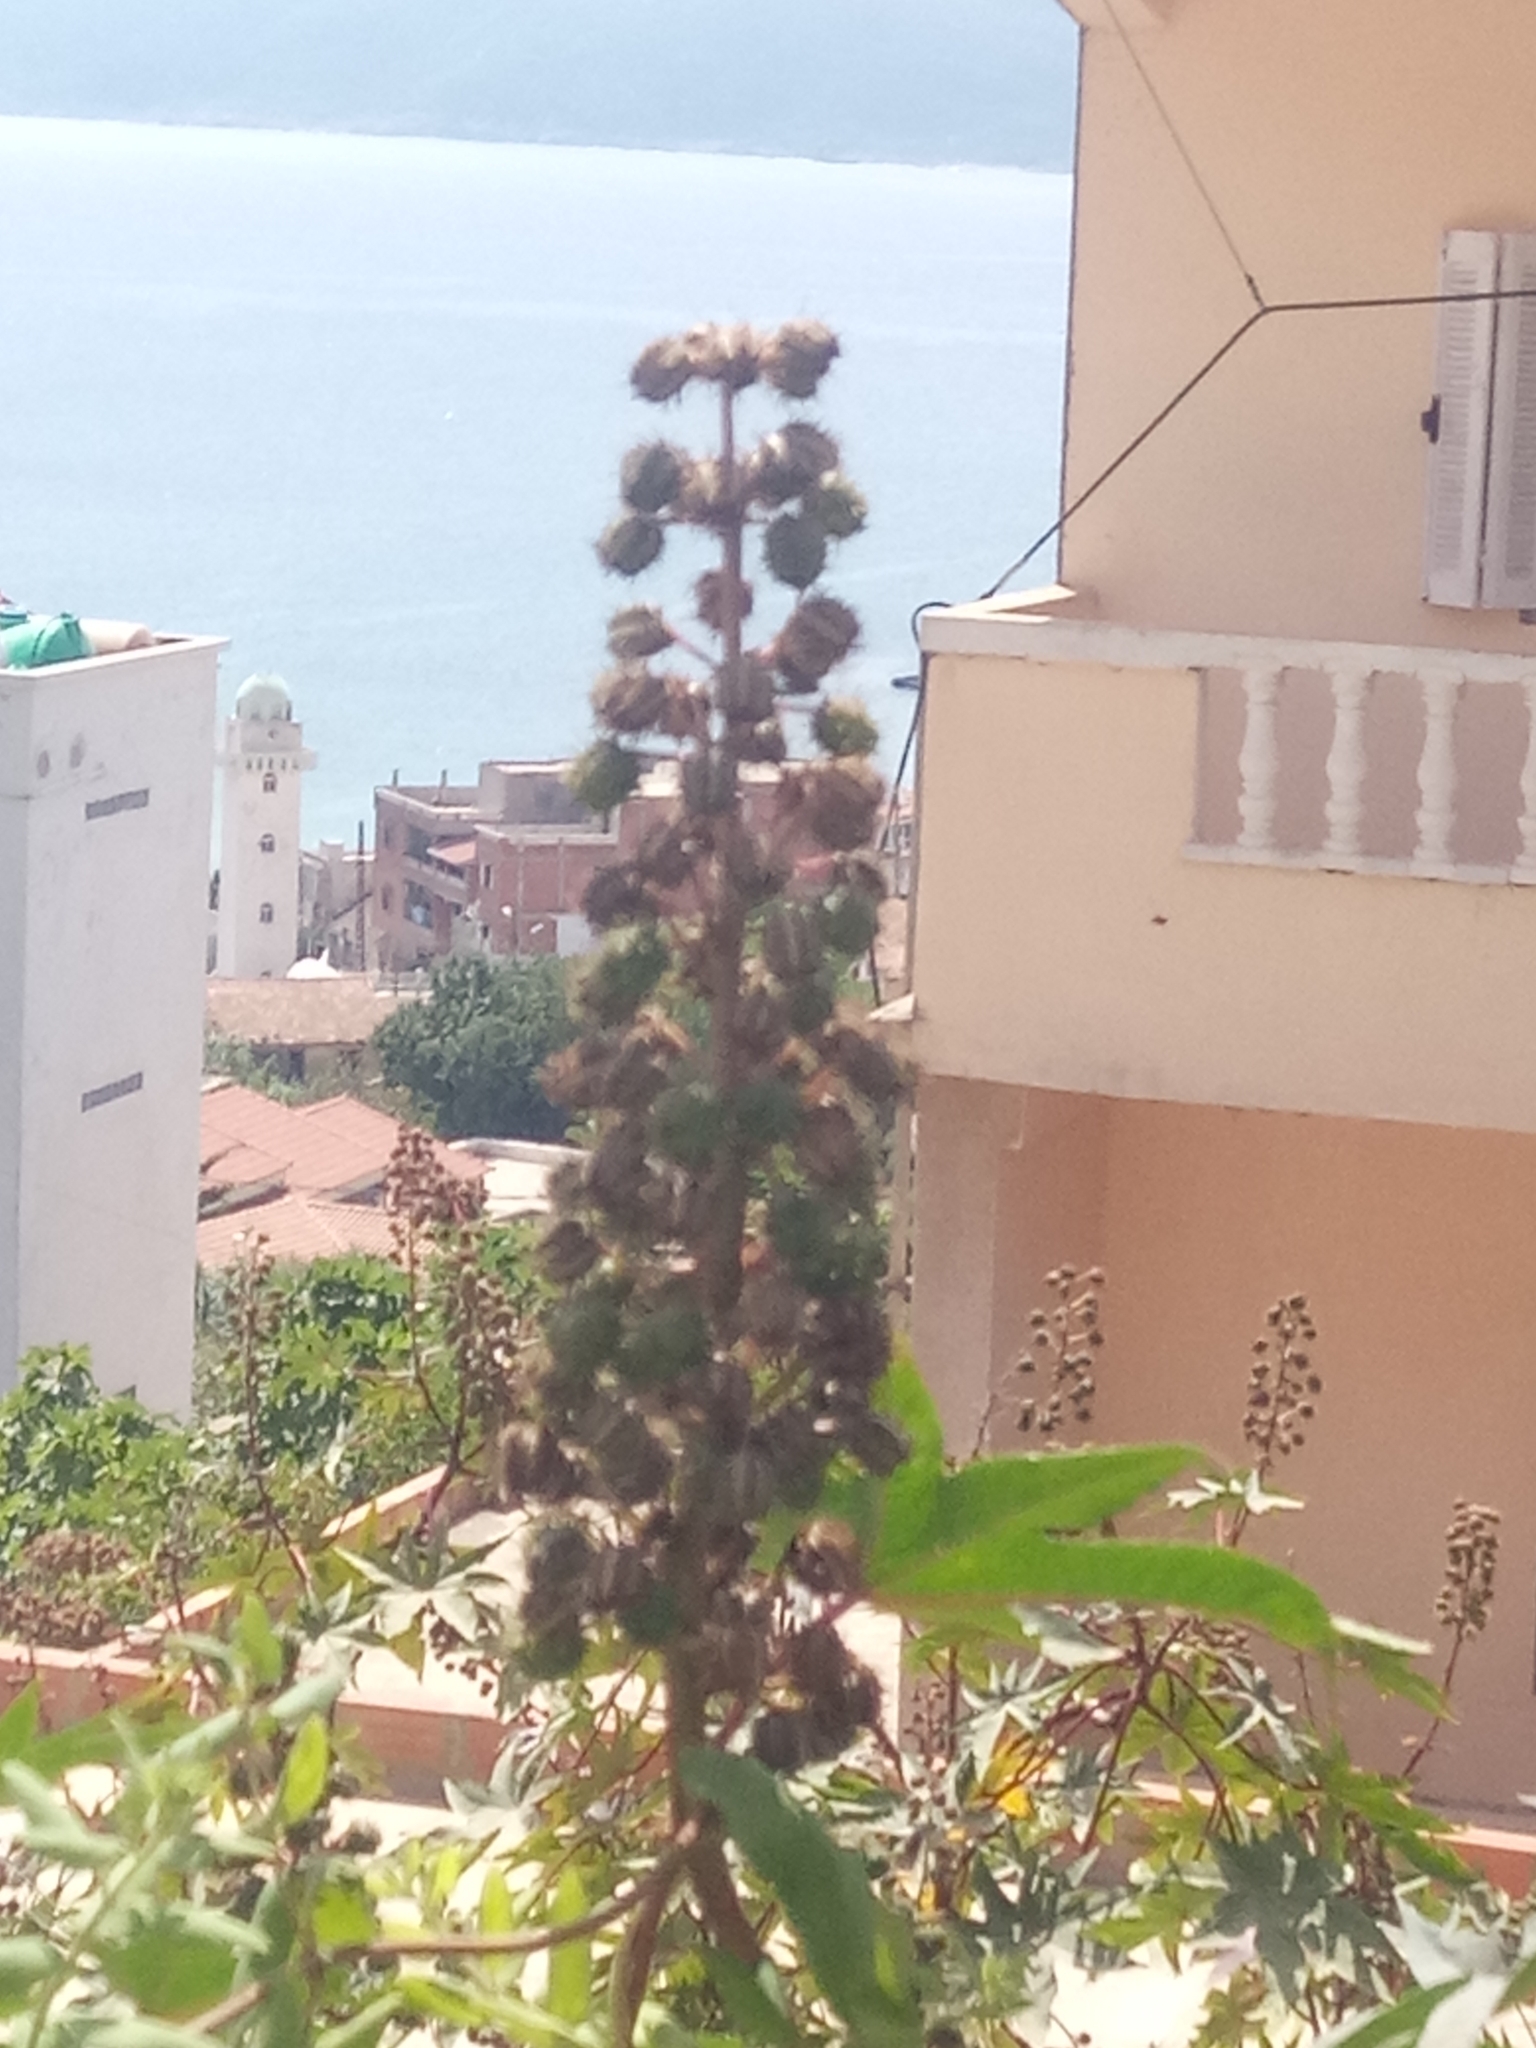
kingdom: Plantae
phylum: Tracheophyta
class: Magnoliopsida
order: Malpighiales
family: Euphorbiaceae
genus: Ricinus
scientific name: Ricinus communis
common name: Castor-oil-plant
